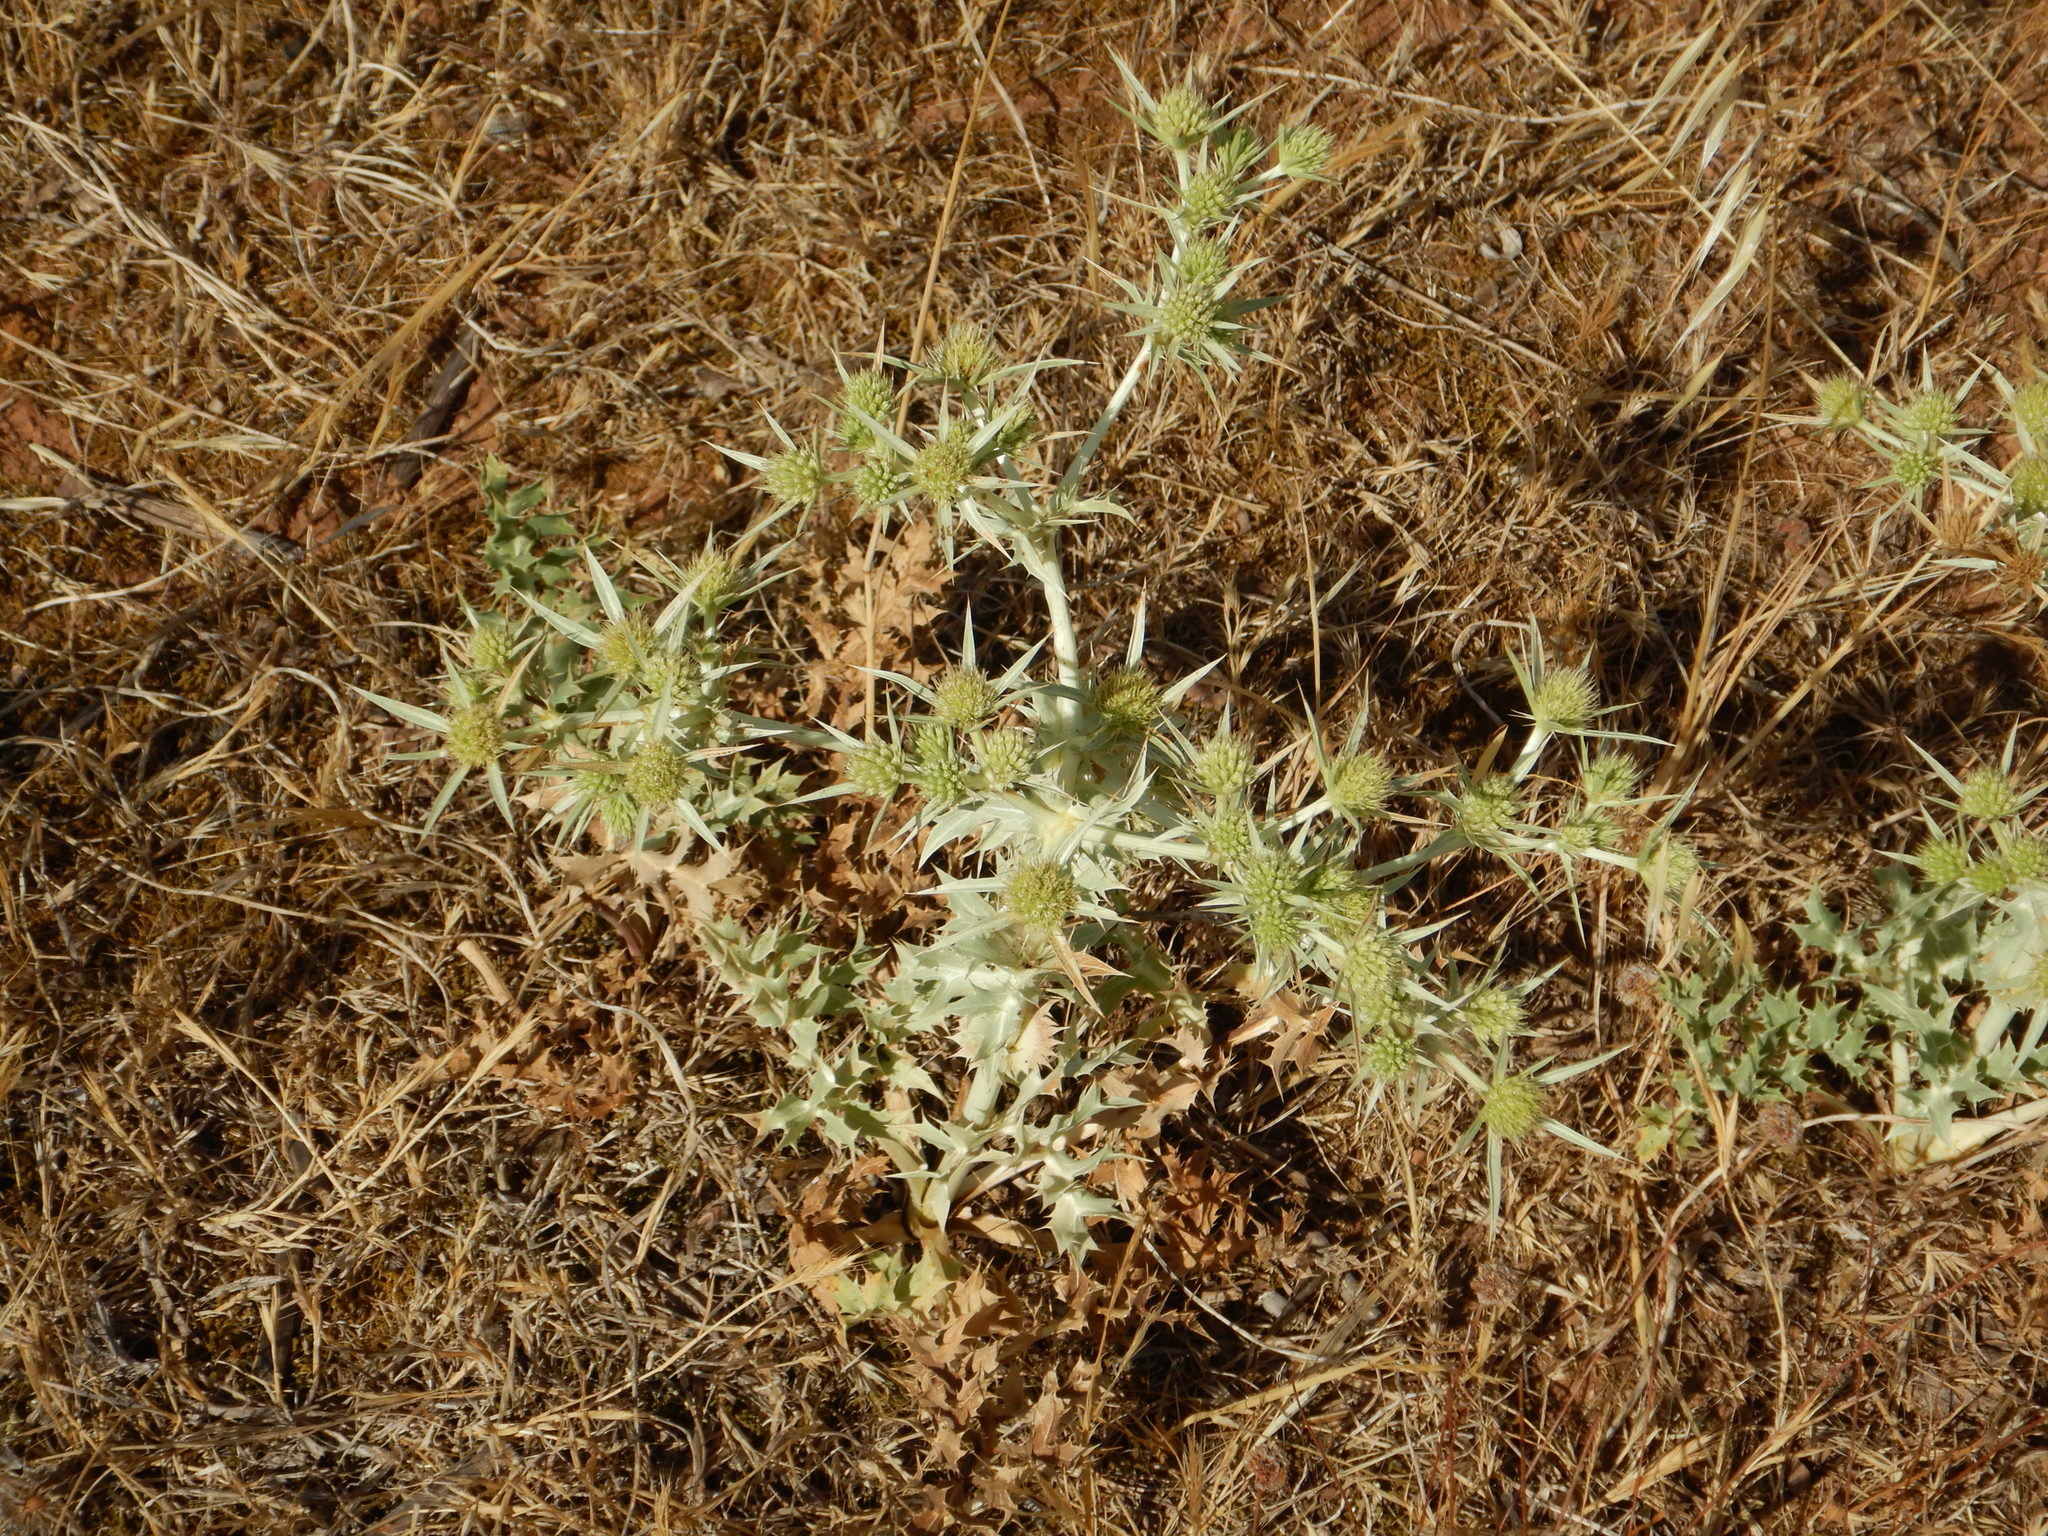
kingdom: Plantae
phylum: Tracheophyta
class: Magnoliopsida
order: Apiales
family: Apiaceae
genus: Eryngium
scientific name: Eryngium campestre
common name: Field eryngo
